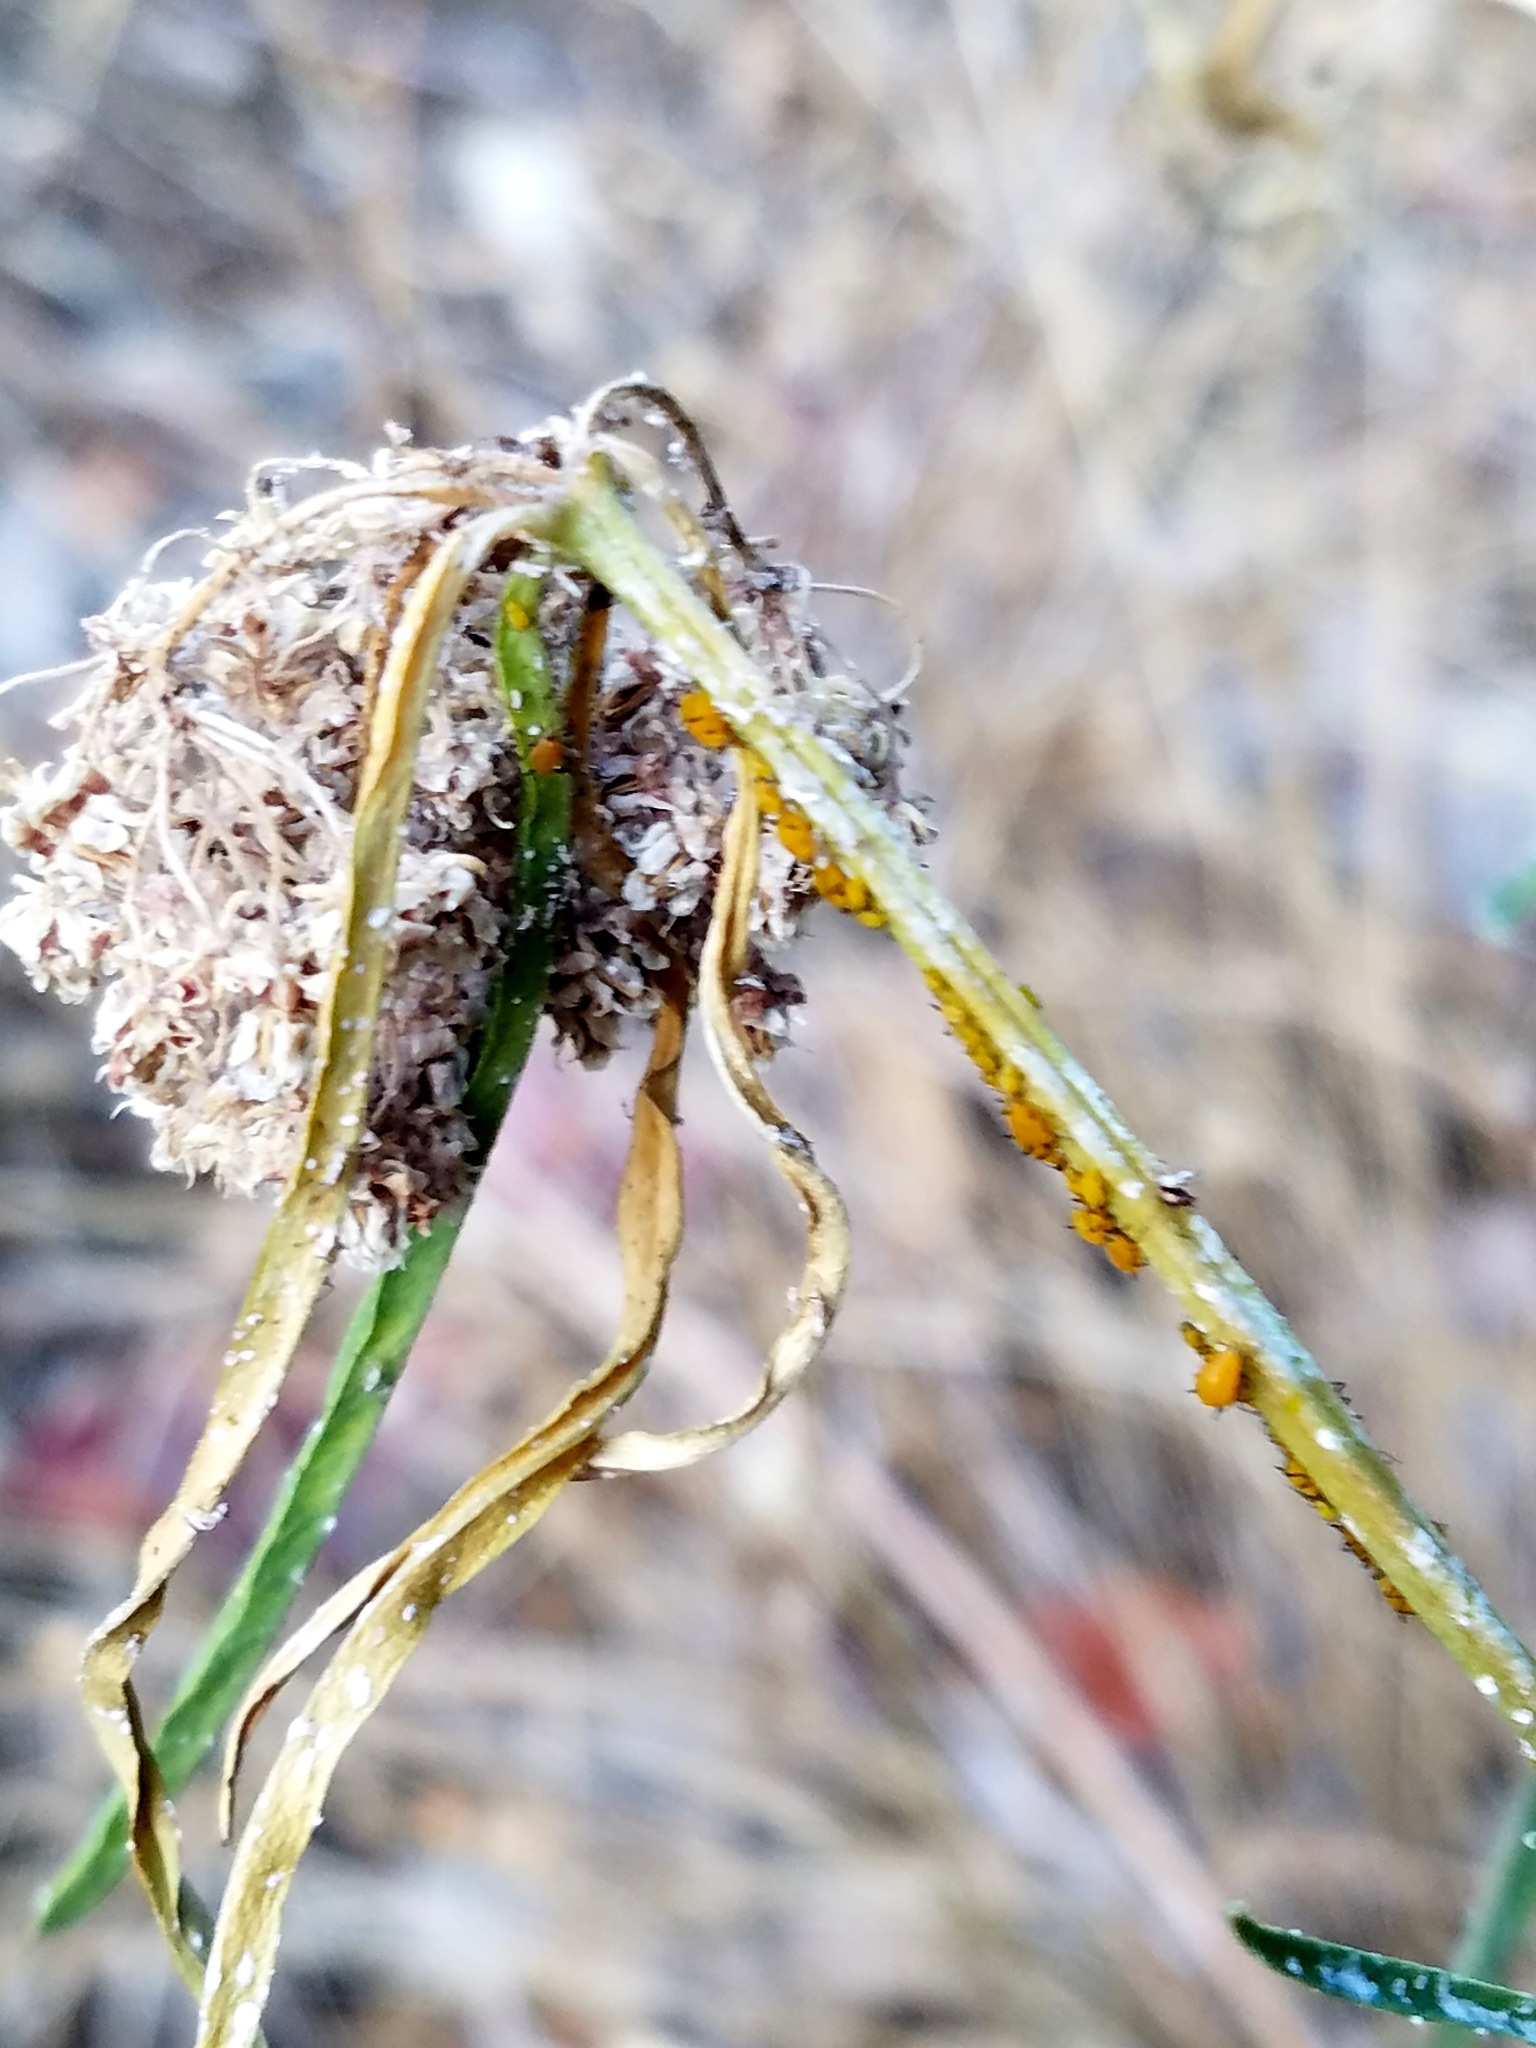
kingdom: Plantae
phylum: Tracheophyta
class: Magnoliopsida
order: Gentianales
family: Apocynaceae
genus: Asclepias
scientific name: Asclepias fascicularis
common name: Mexican milkweed
